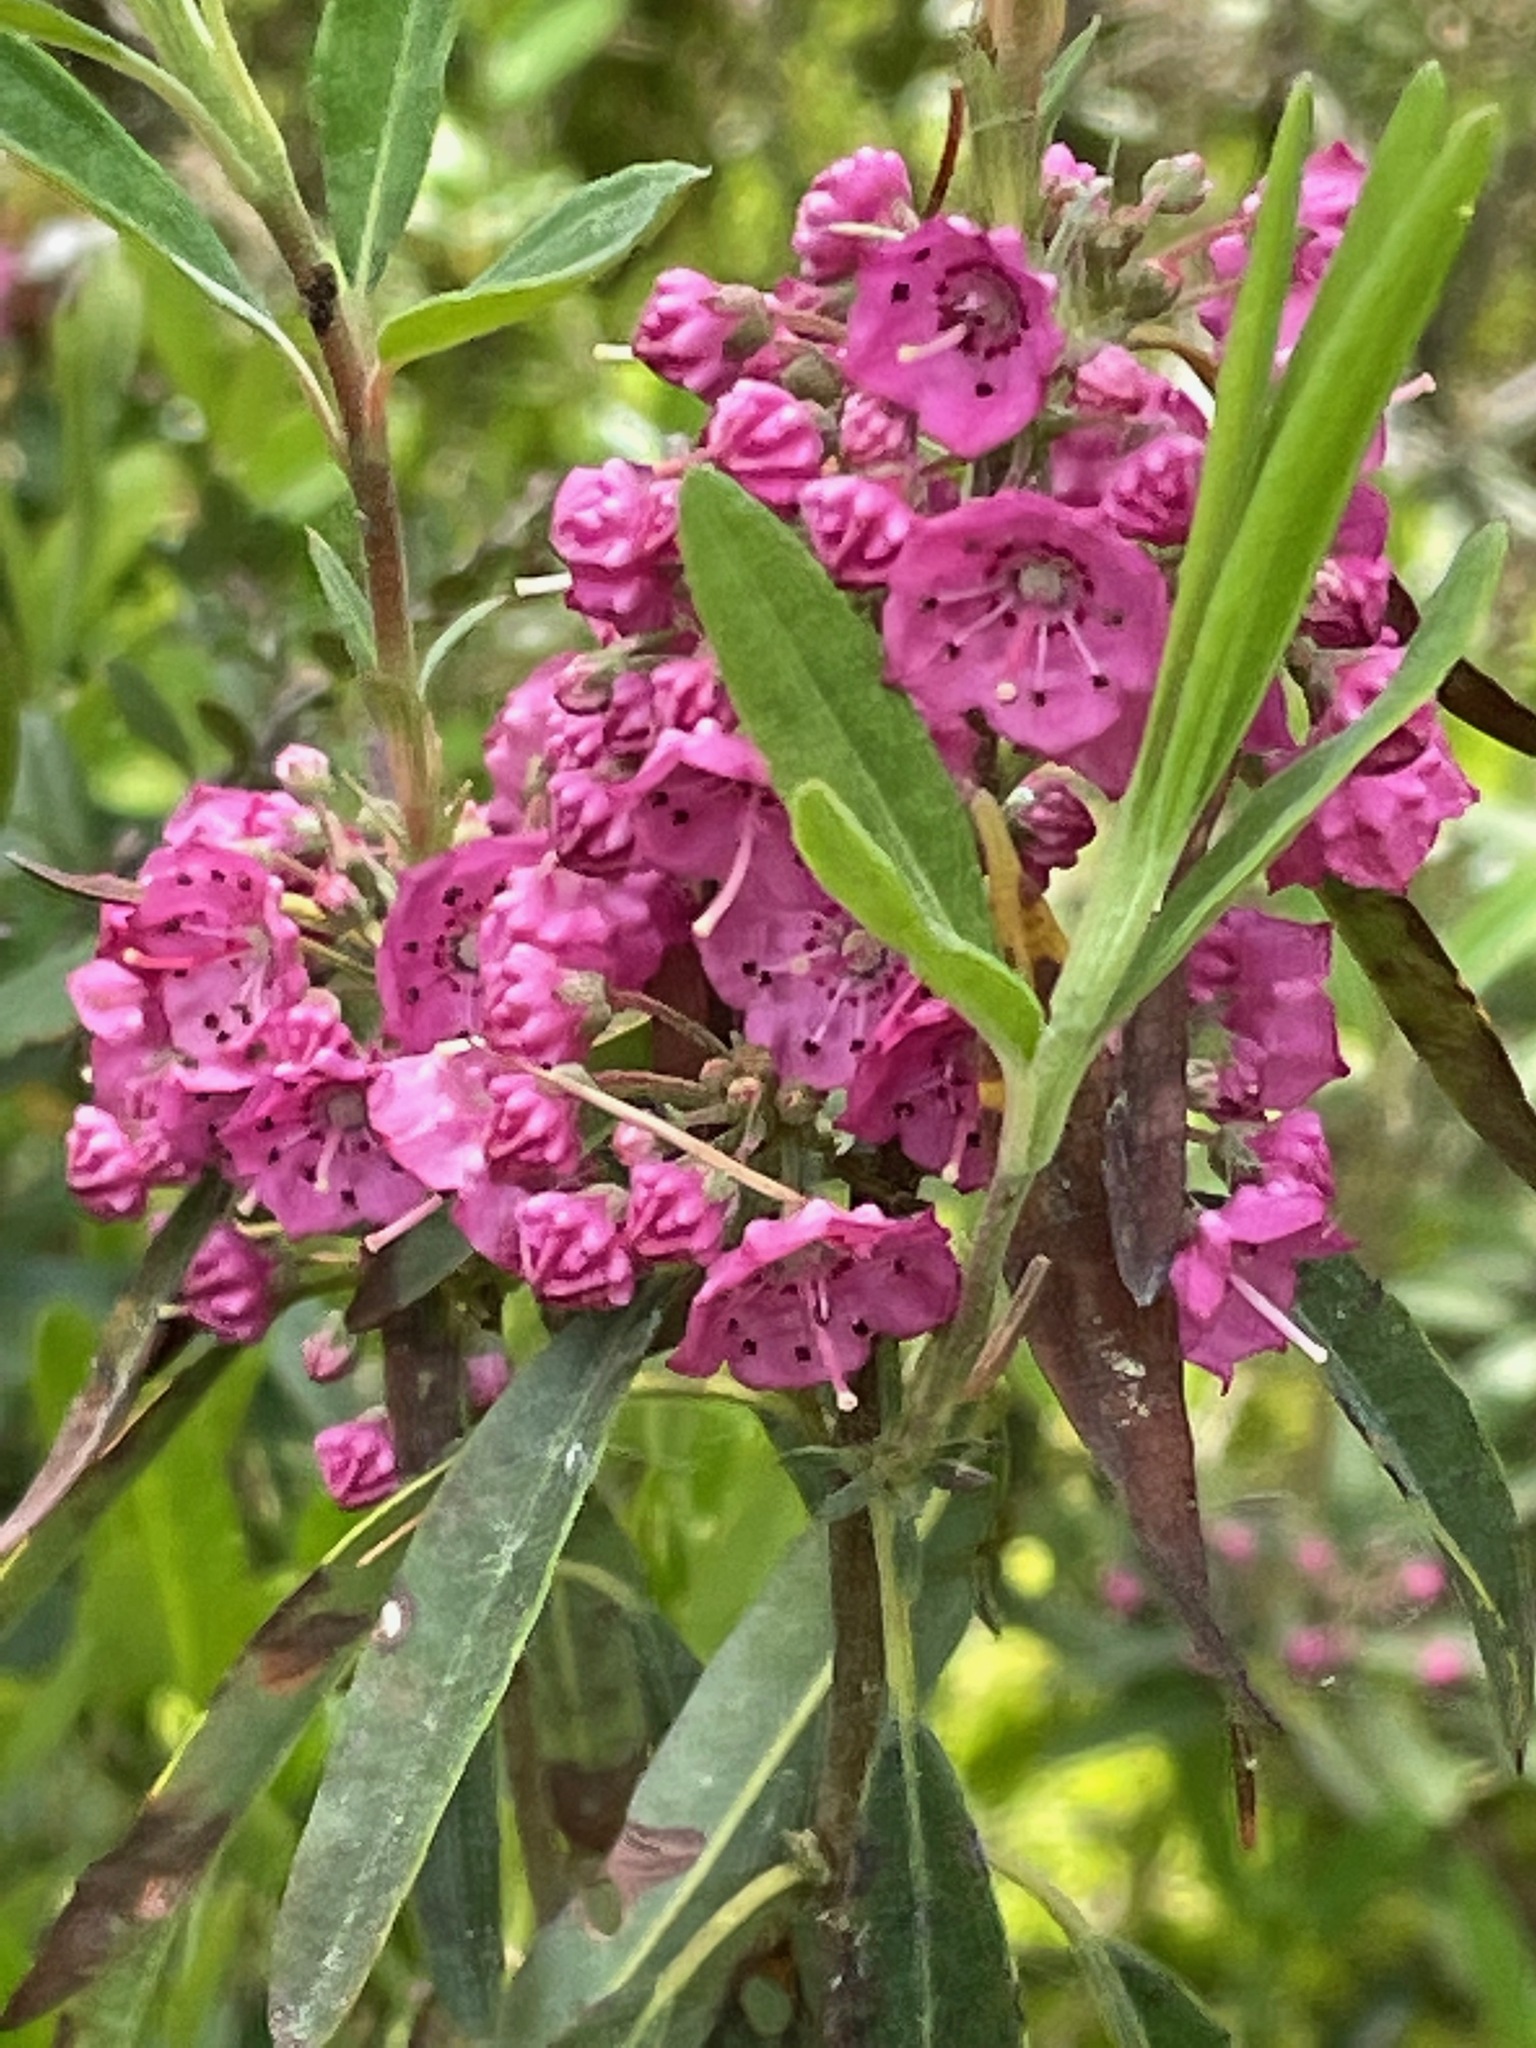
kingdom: Plantae
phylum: Tracheophyta
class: Magnoliopsida
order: Ericales
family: Ericaceae
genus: Kalmia
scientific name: Kalmia angustifolia
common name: Sheep-laurel
